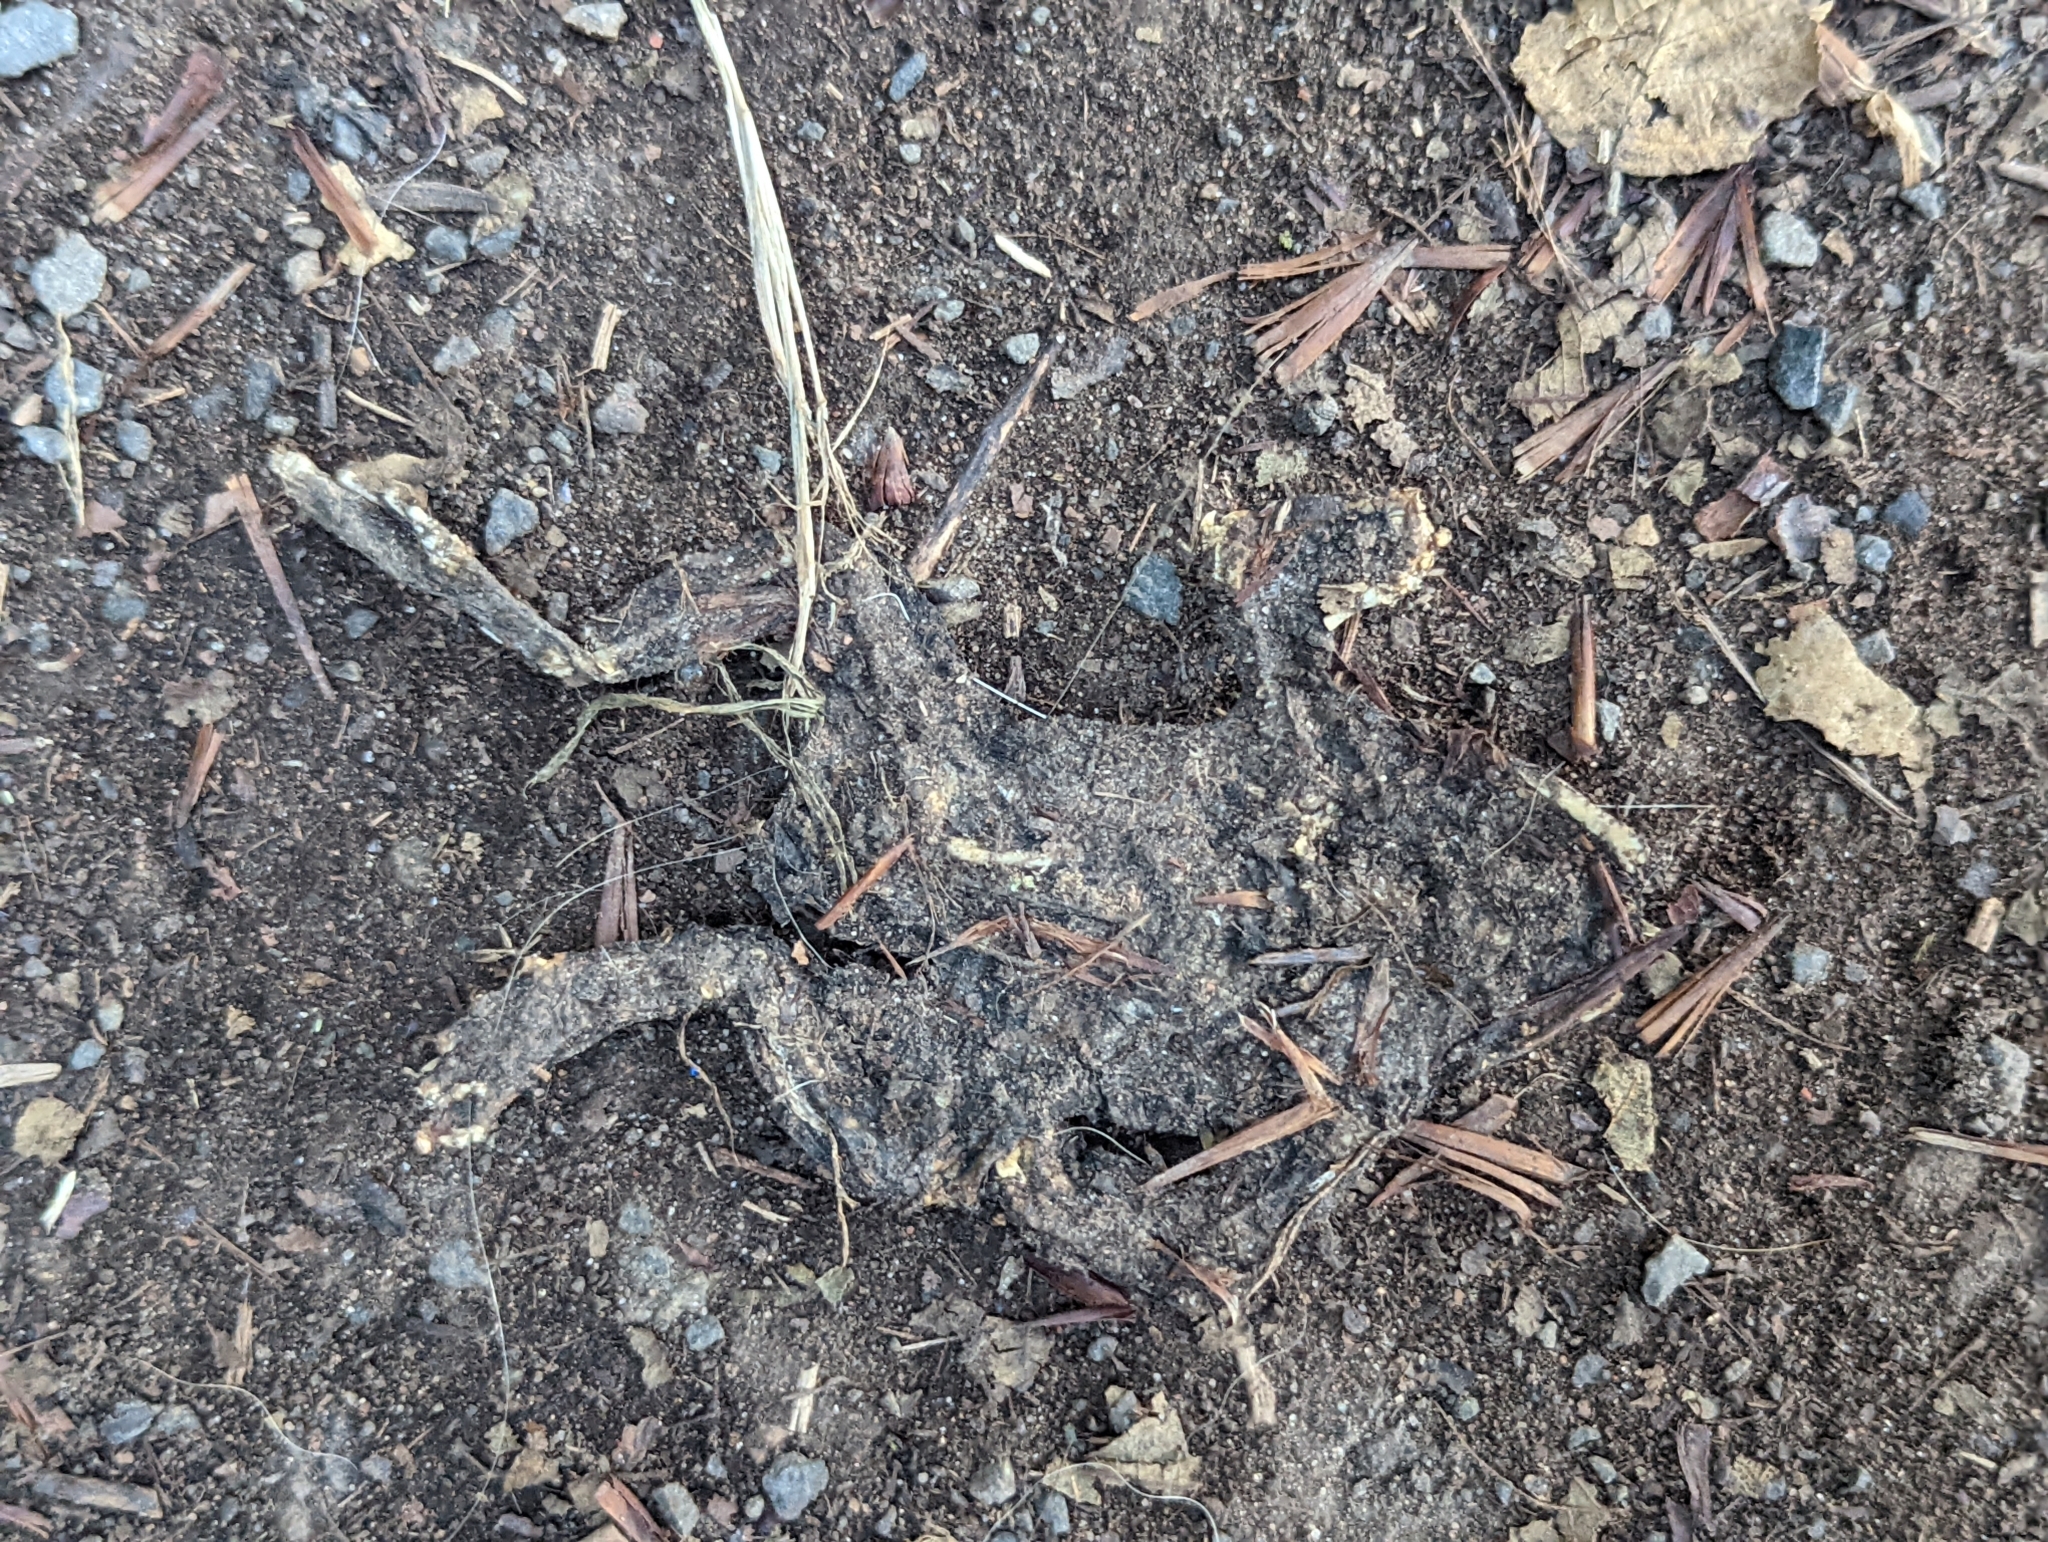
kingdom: Animalia
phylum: Chordata
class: Amphibia
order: Anura
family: Bufonidae
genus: Bufo
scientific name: Bufo bufo
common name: Common toad
